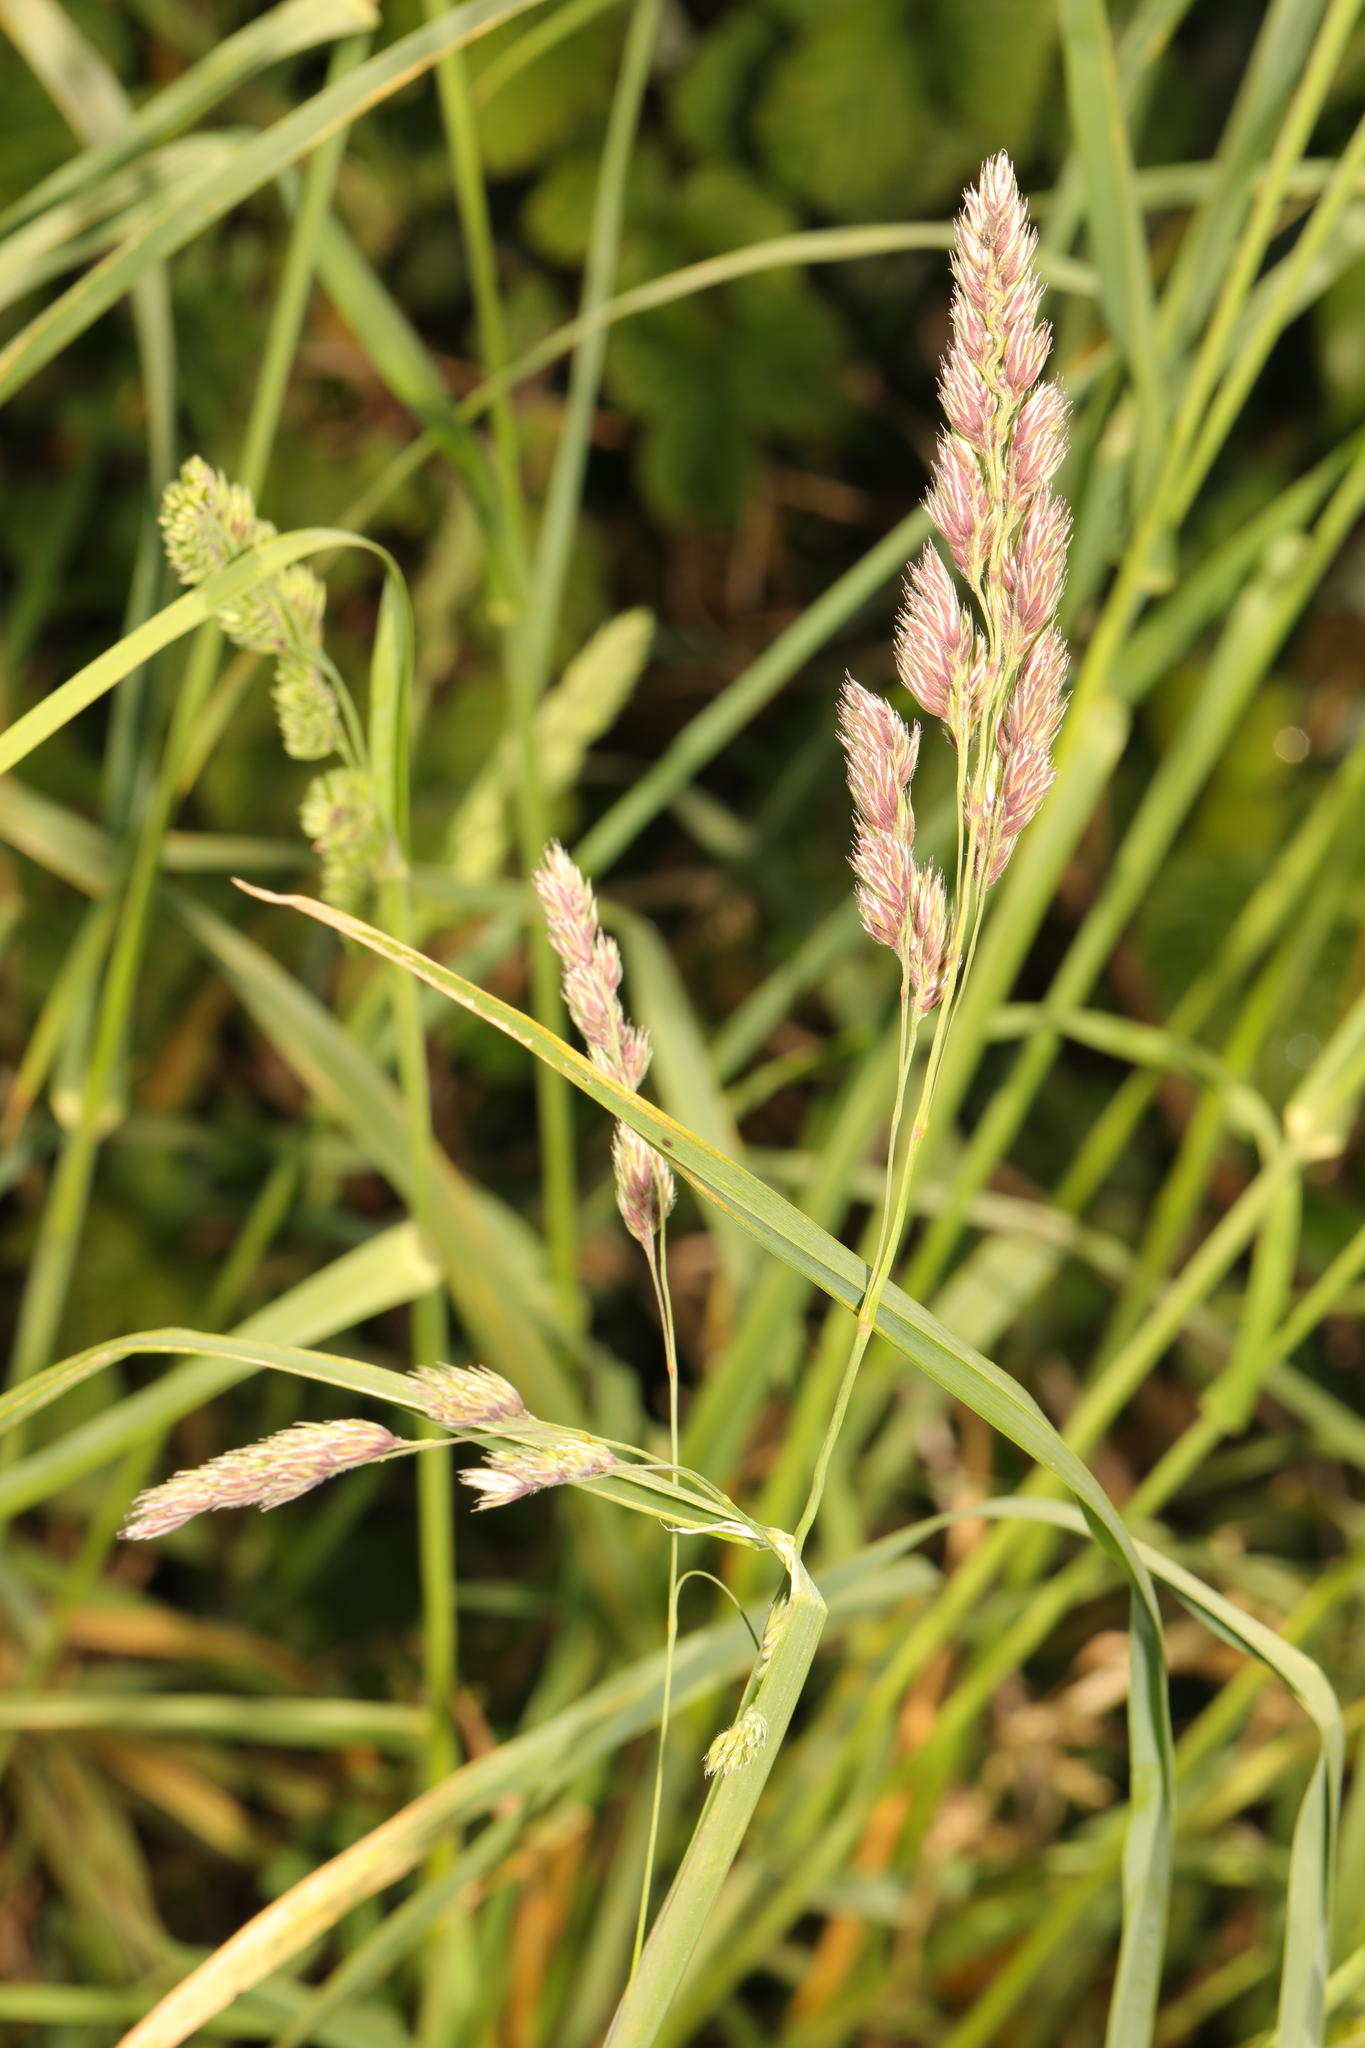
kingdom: Plantae
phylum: Tracheophyta
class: Liliopsida
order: Poales
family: Poaceae
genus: Dactylis
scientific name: Dactylis glomerata
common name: Orchardgrass
